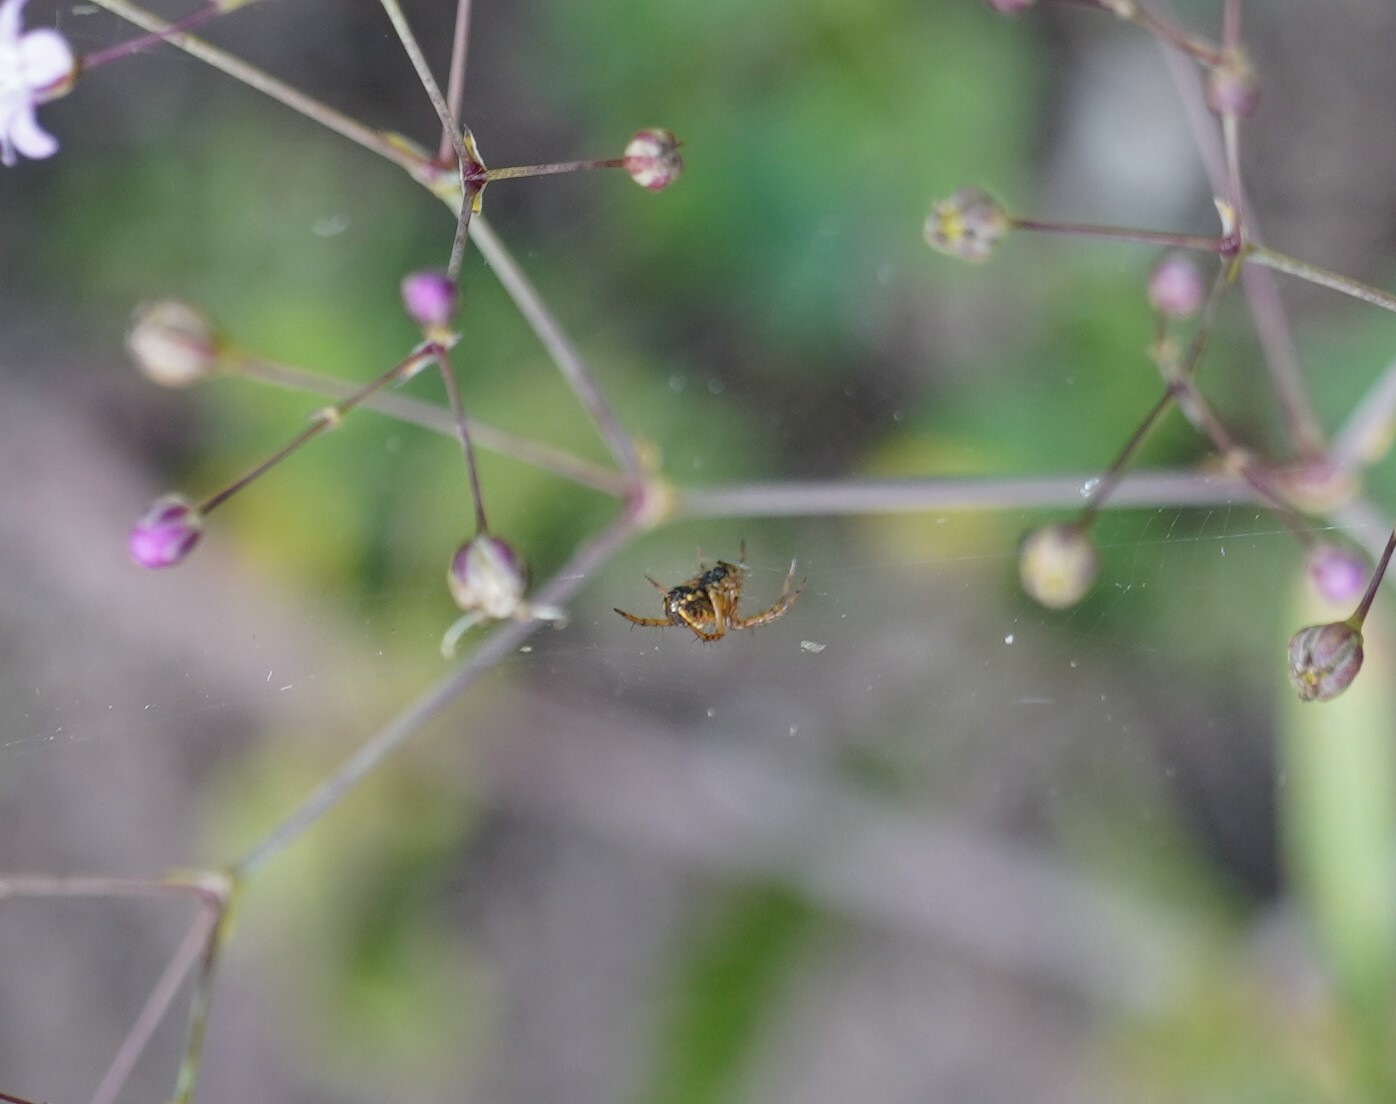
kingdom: Animalia
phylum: Arthropoda
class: Arachnida
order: Araneae
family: Araneidae
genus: Mangora
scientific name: Mangora acalypha
